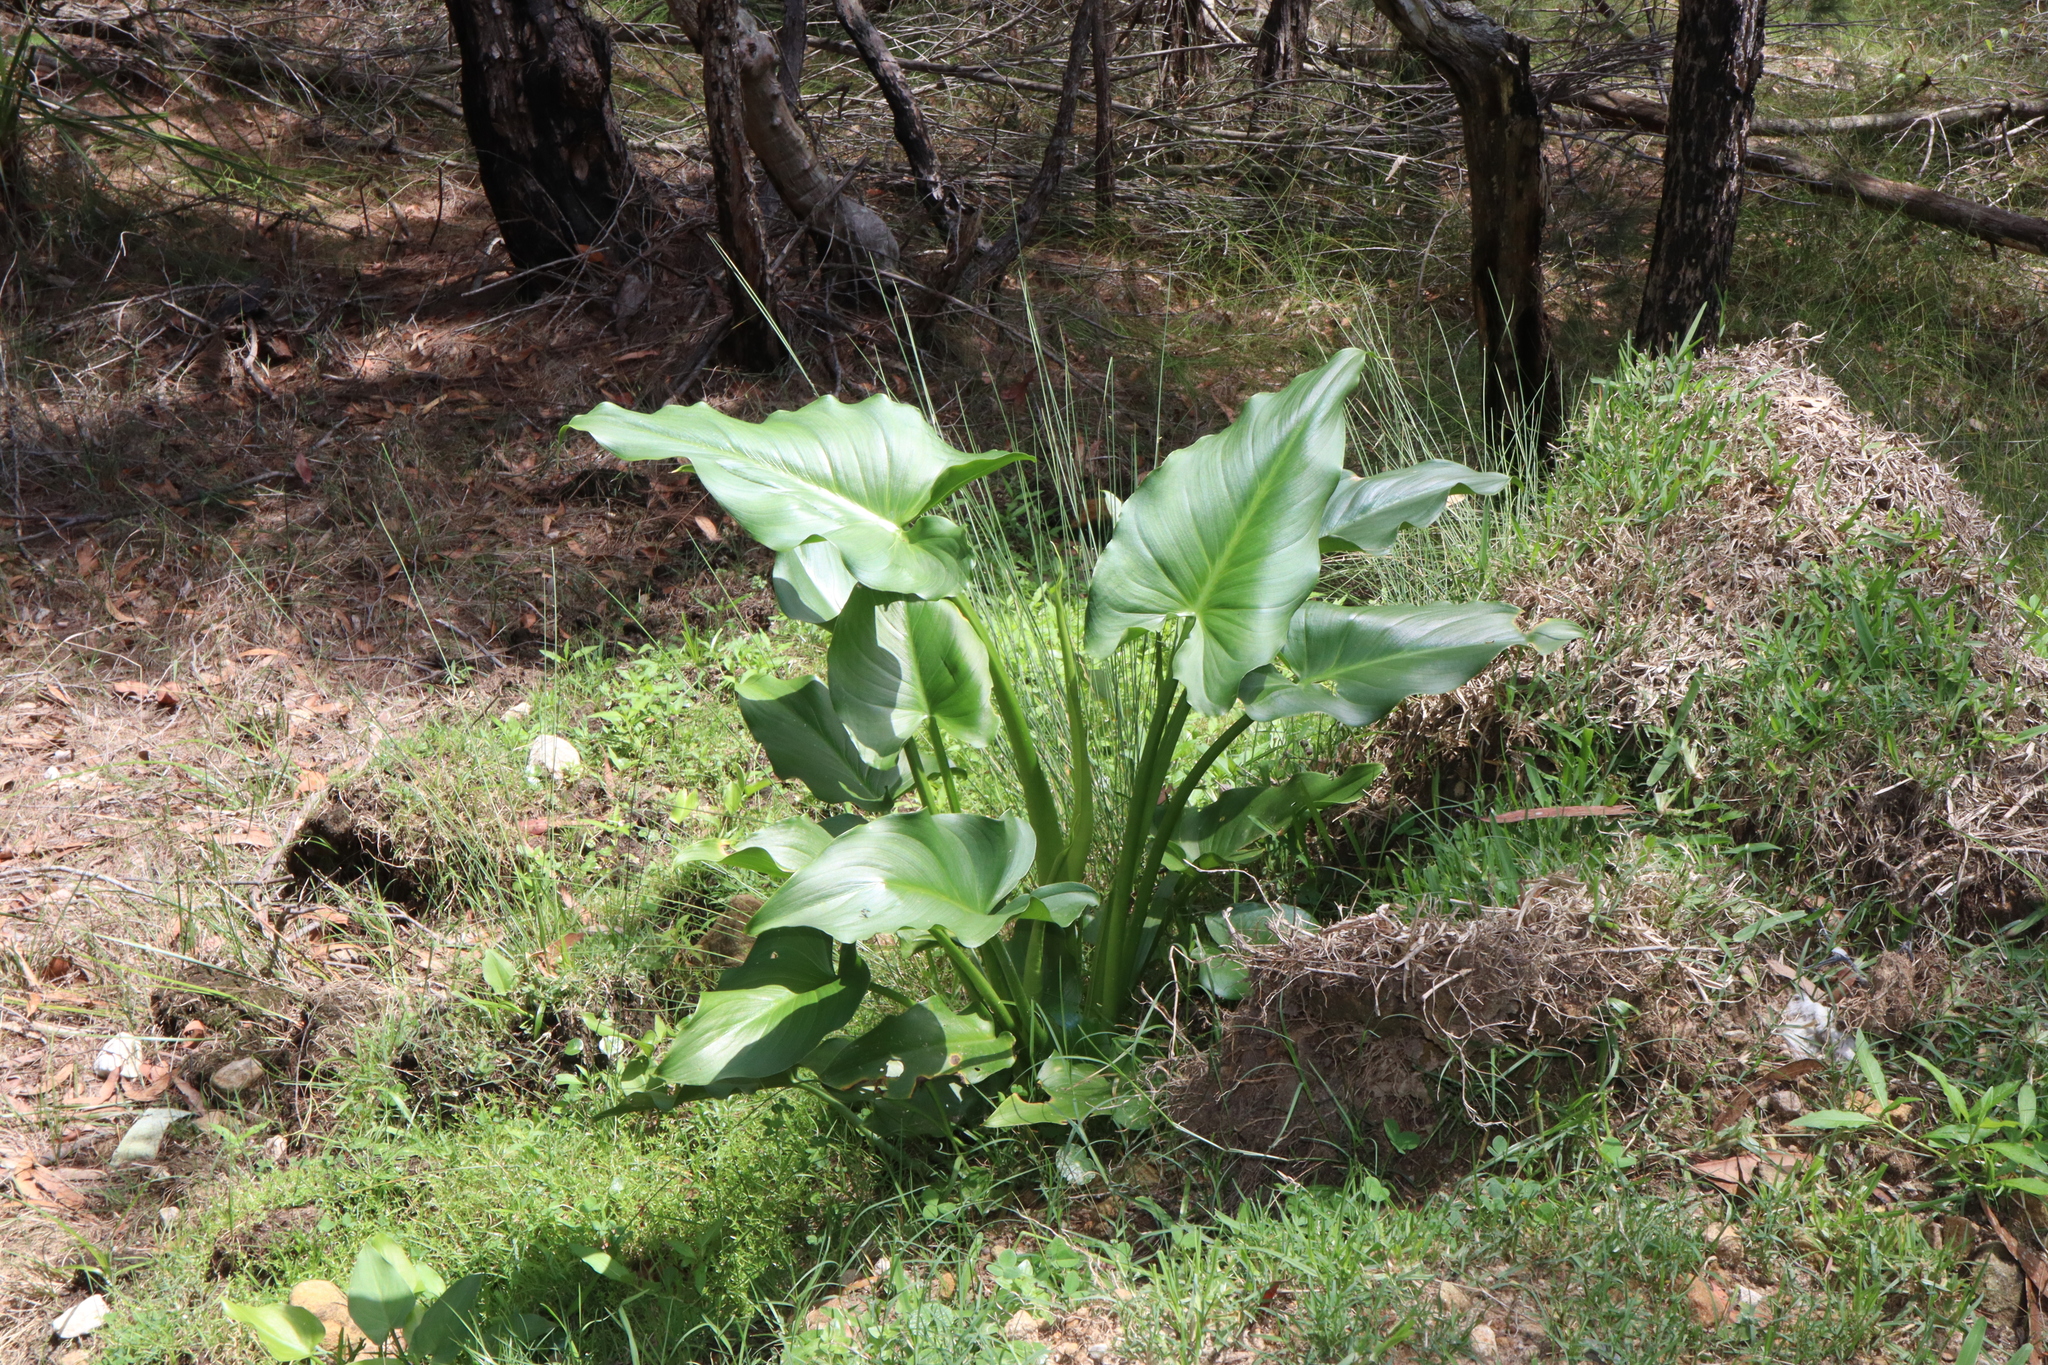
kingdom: Plantae
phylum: Tracheophyta
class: Liliopsida
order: Alismatales
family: Araceae
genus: Zantedeschia
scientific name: Zantedeschia aethiopica
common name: Altar-lily
